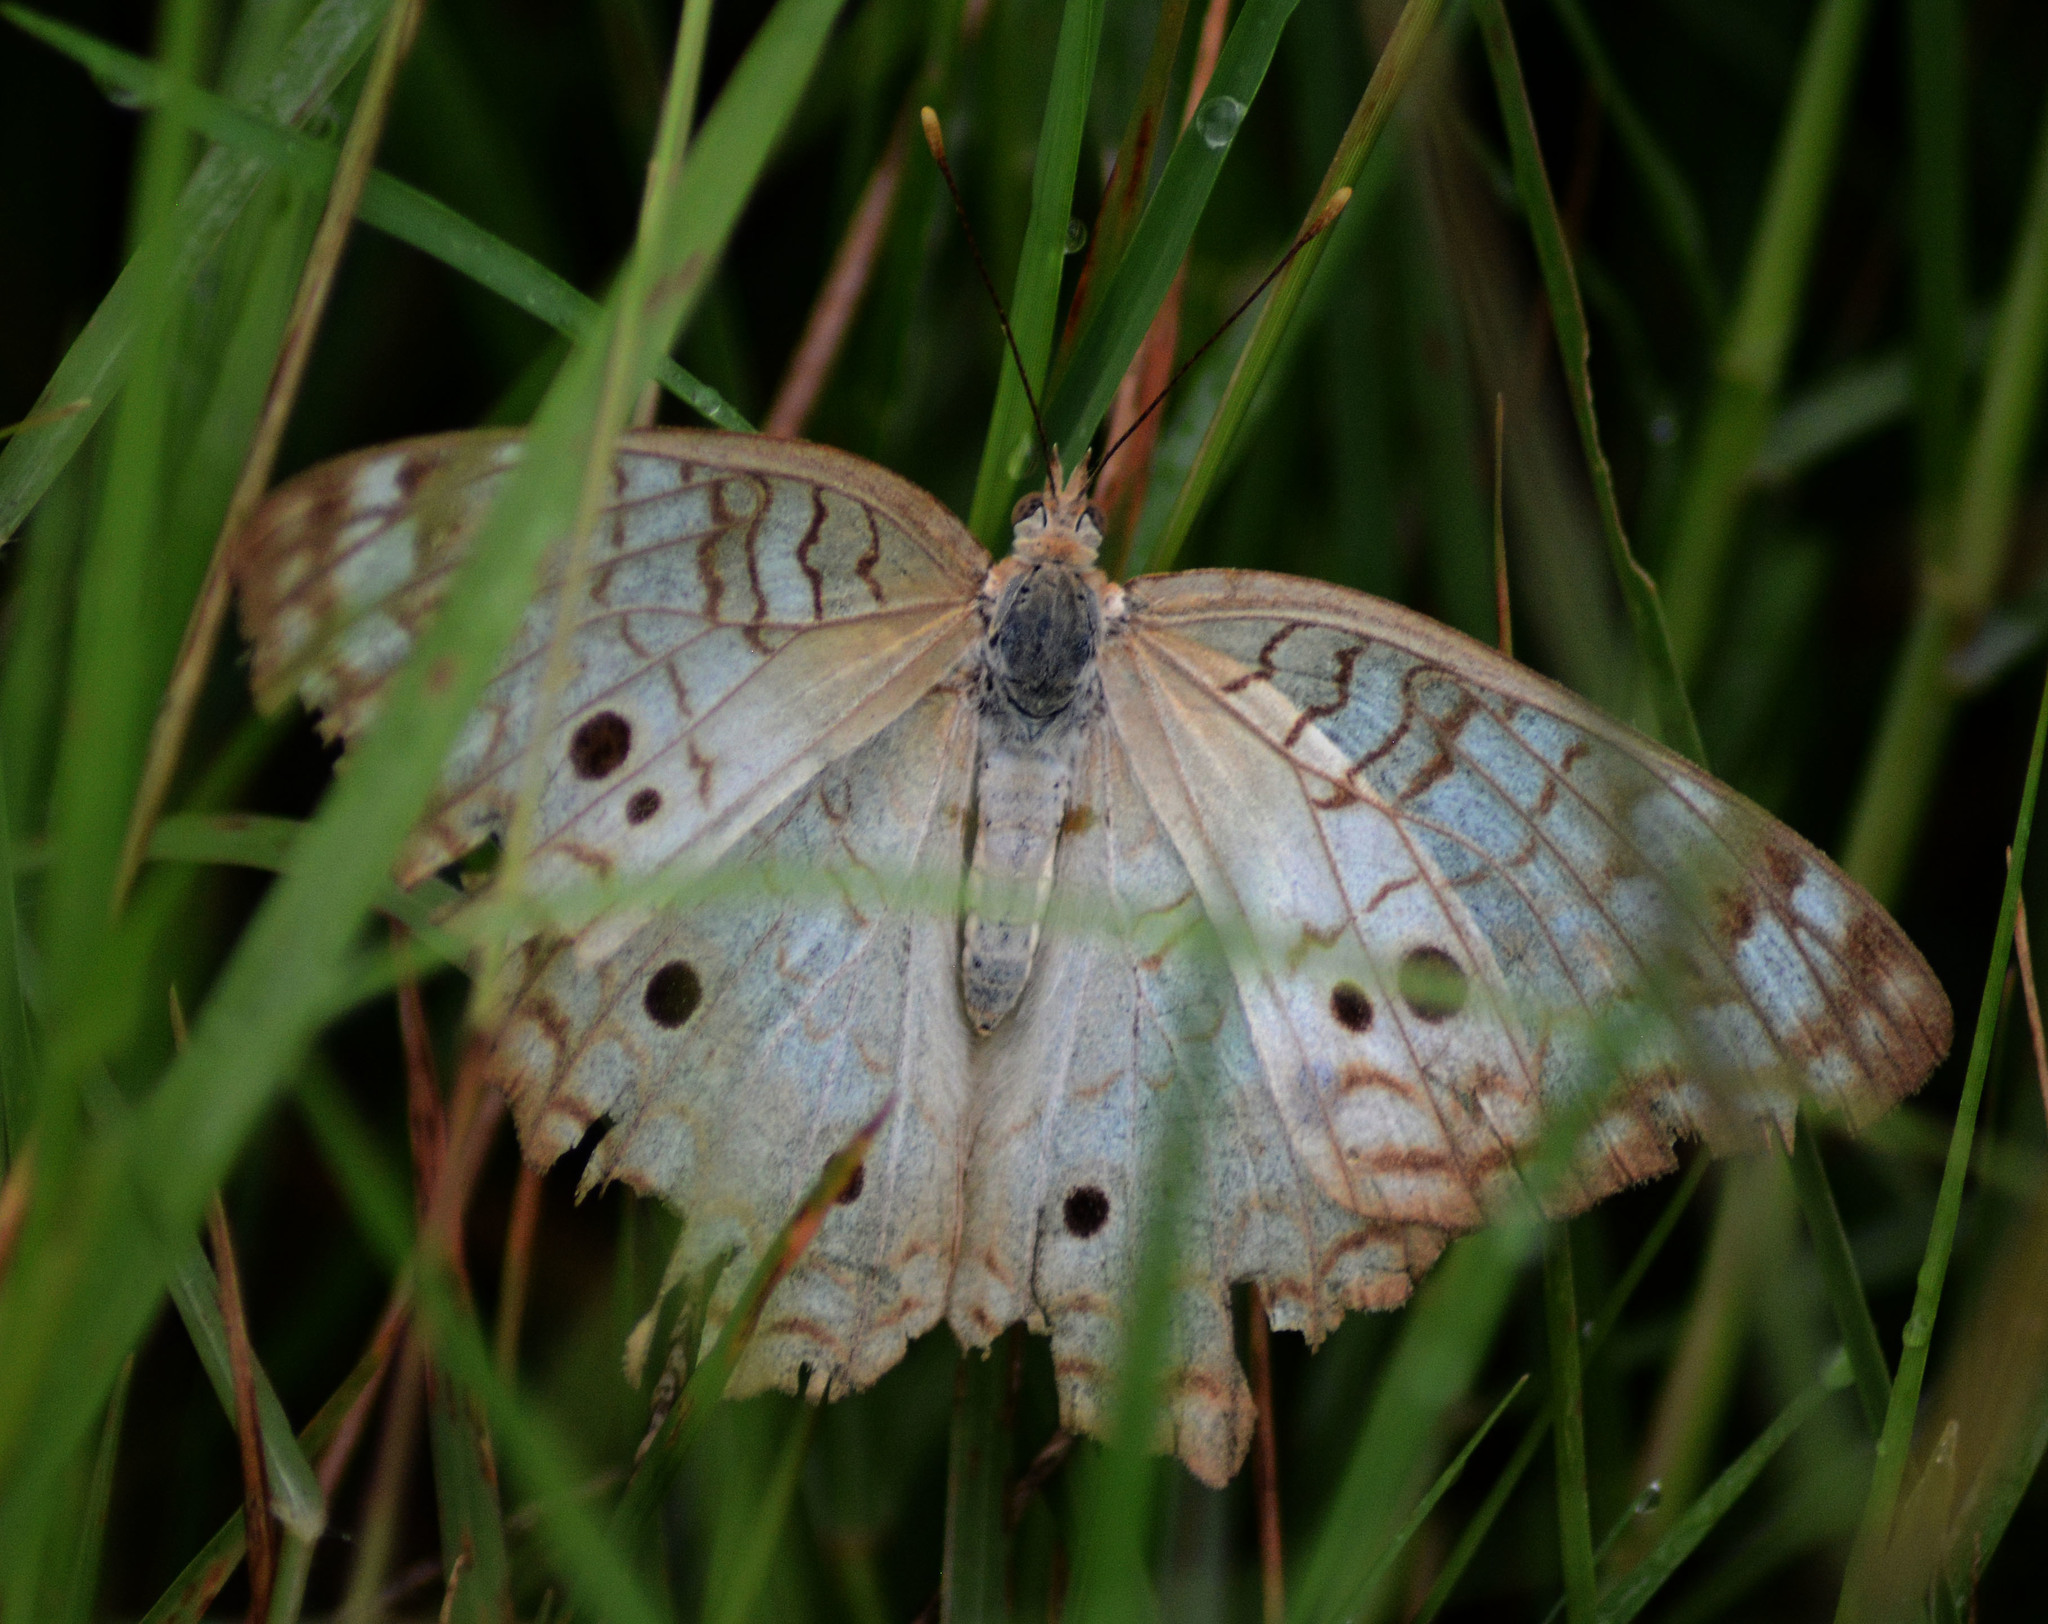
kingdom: Animalia
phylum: Arthropoda
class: Insecta
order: Lepidoptera
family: Nymphalidae
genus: Anartia
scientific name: Anartia jatrophae
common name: White peacock
